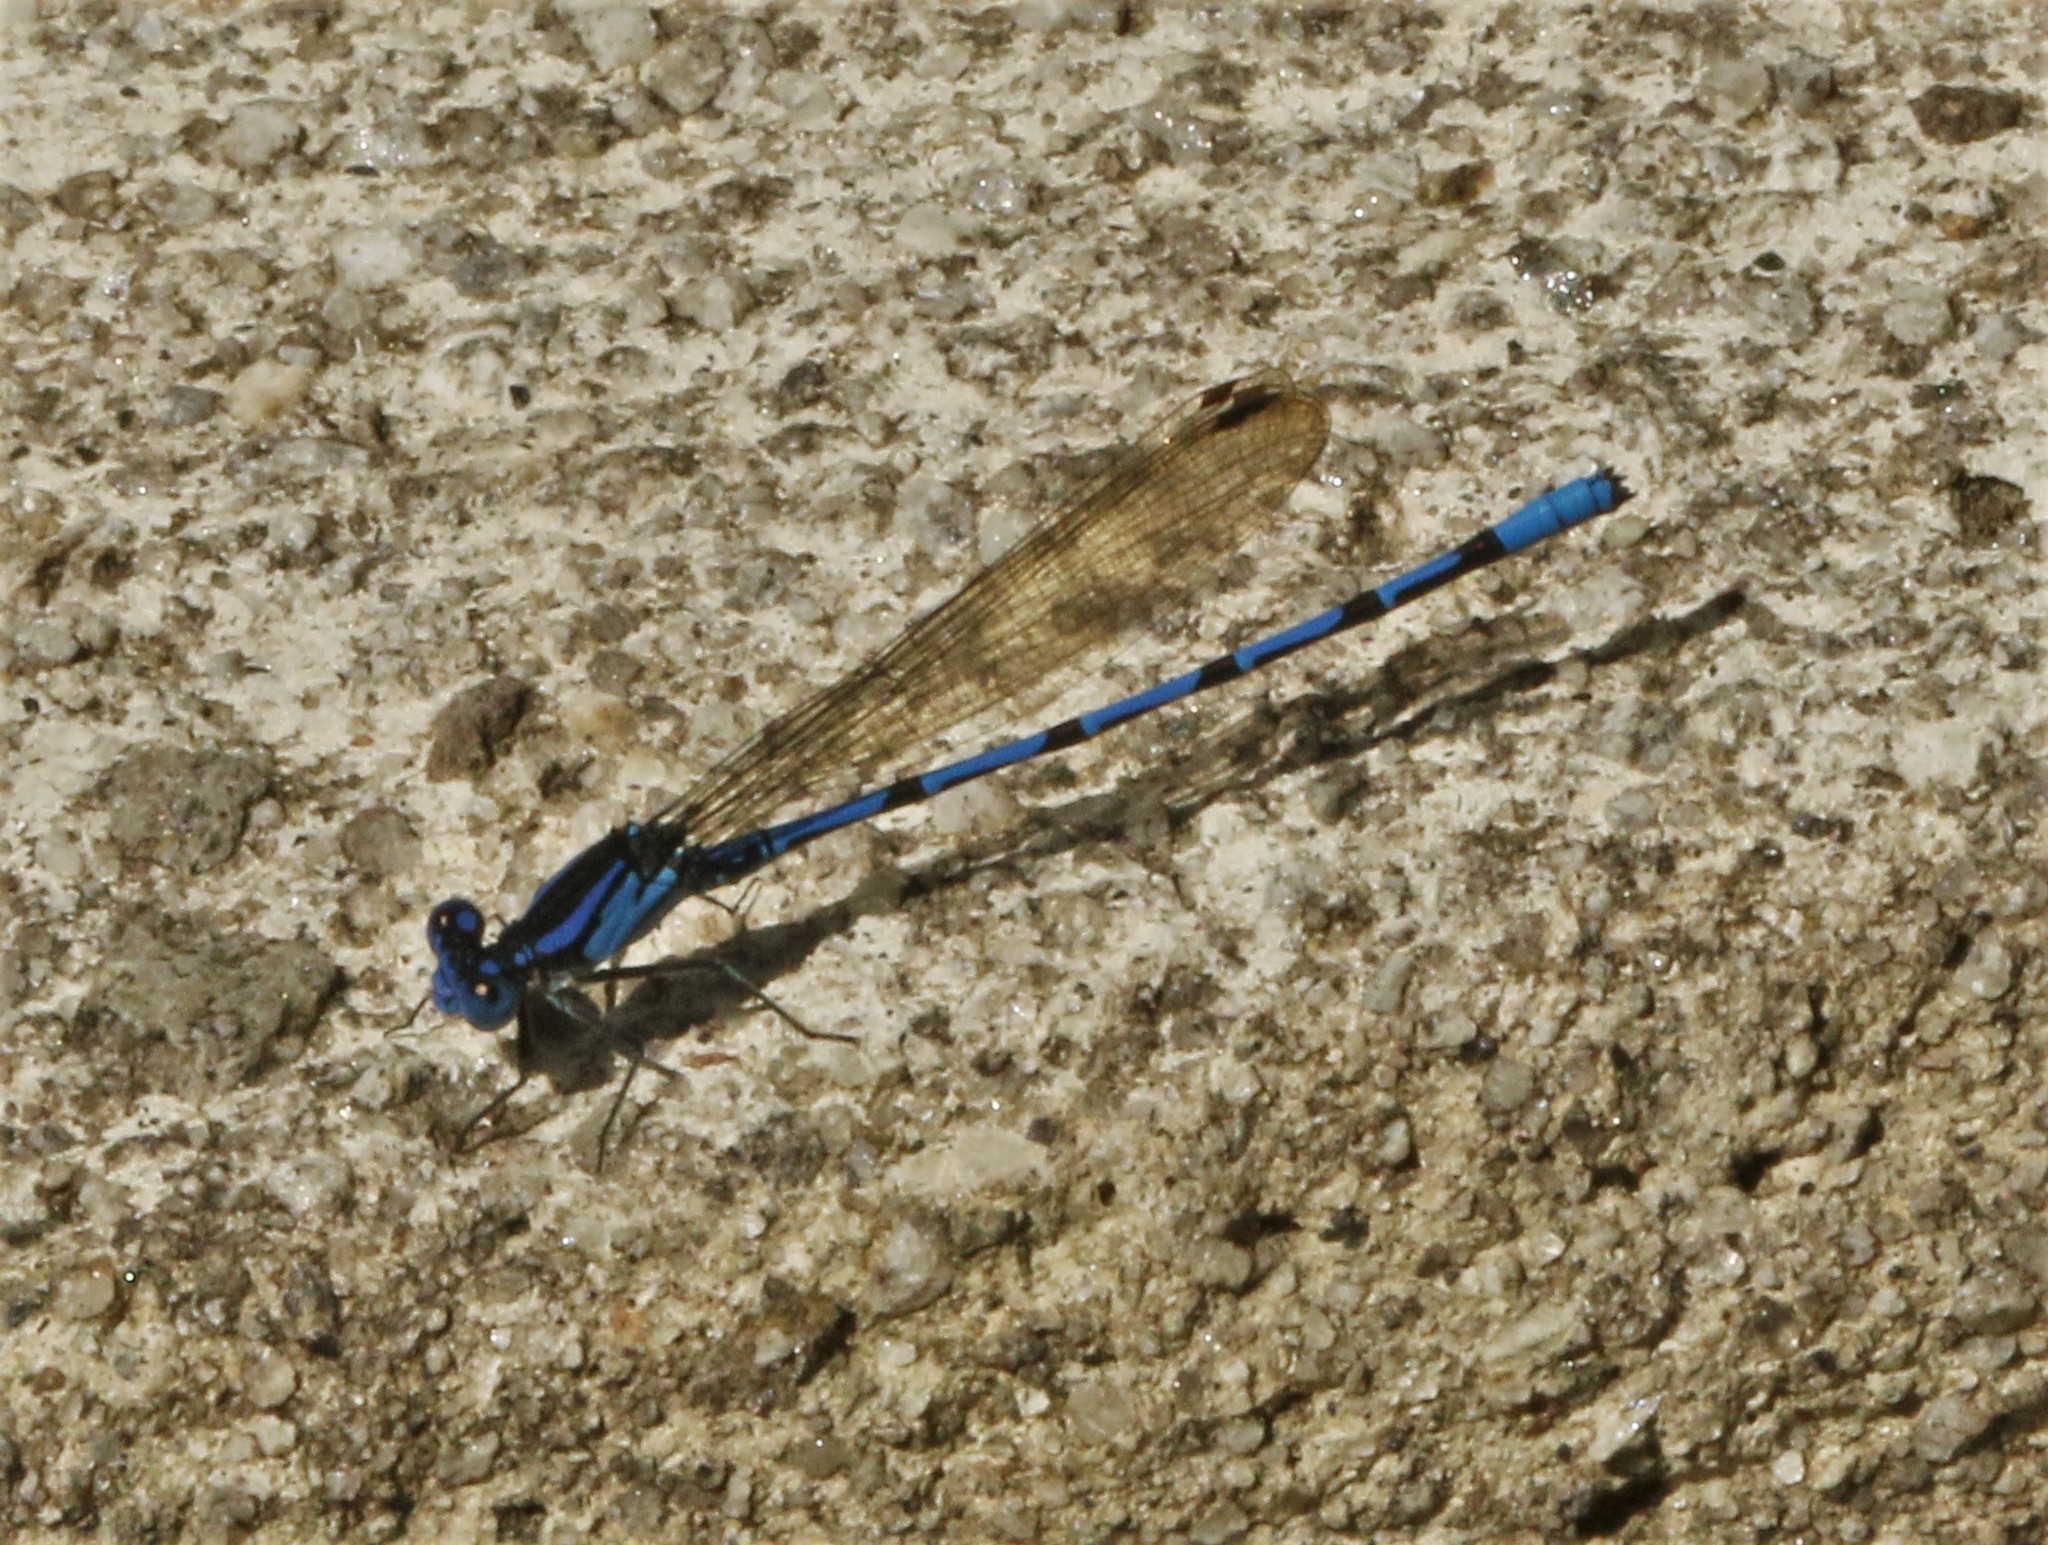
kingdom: Animalia
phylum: Arthropoda
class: Insecta
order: Odonata
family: Coenagrionidae
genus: Argia
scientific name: Argia elongata
